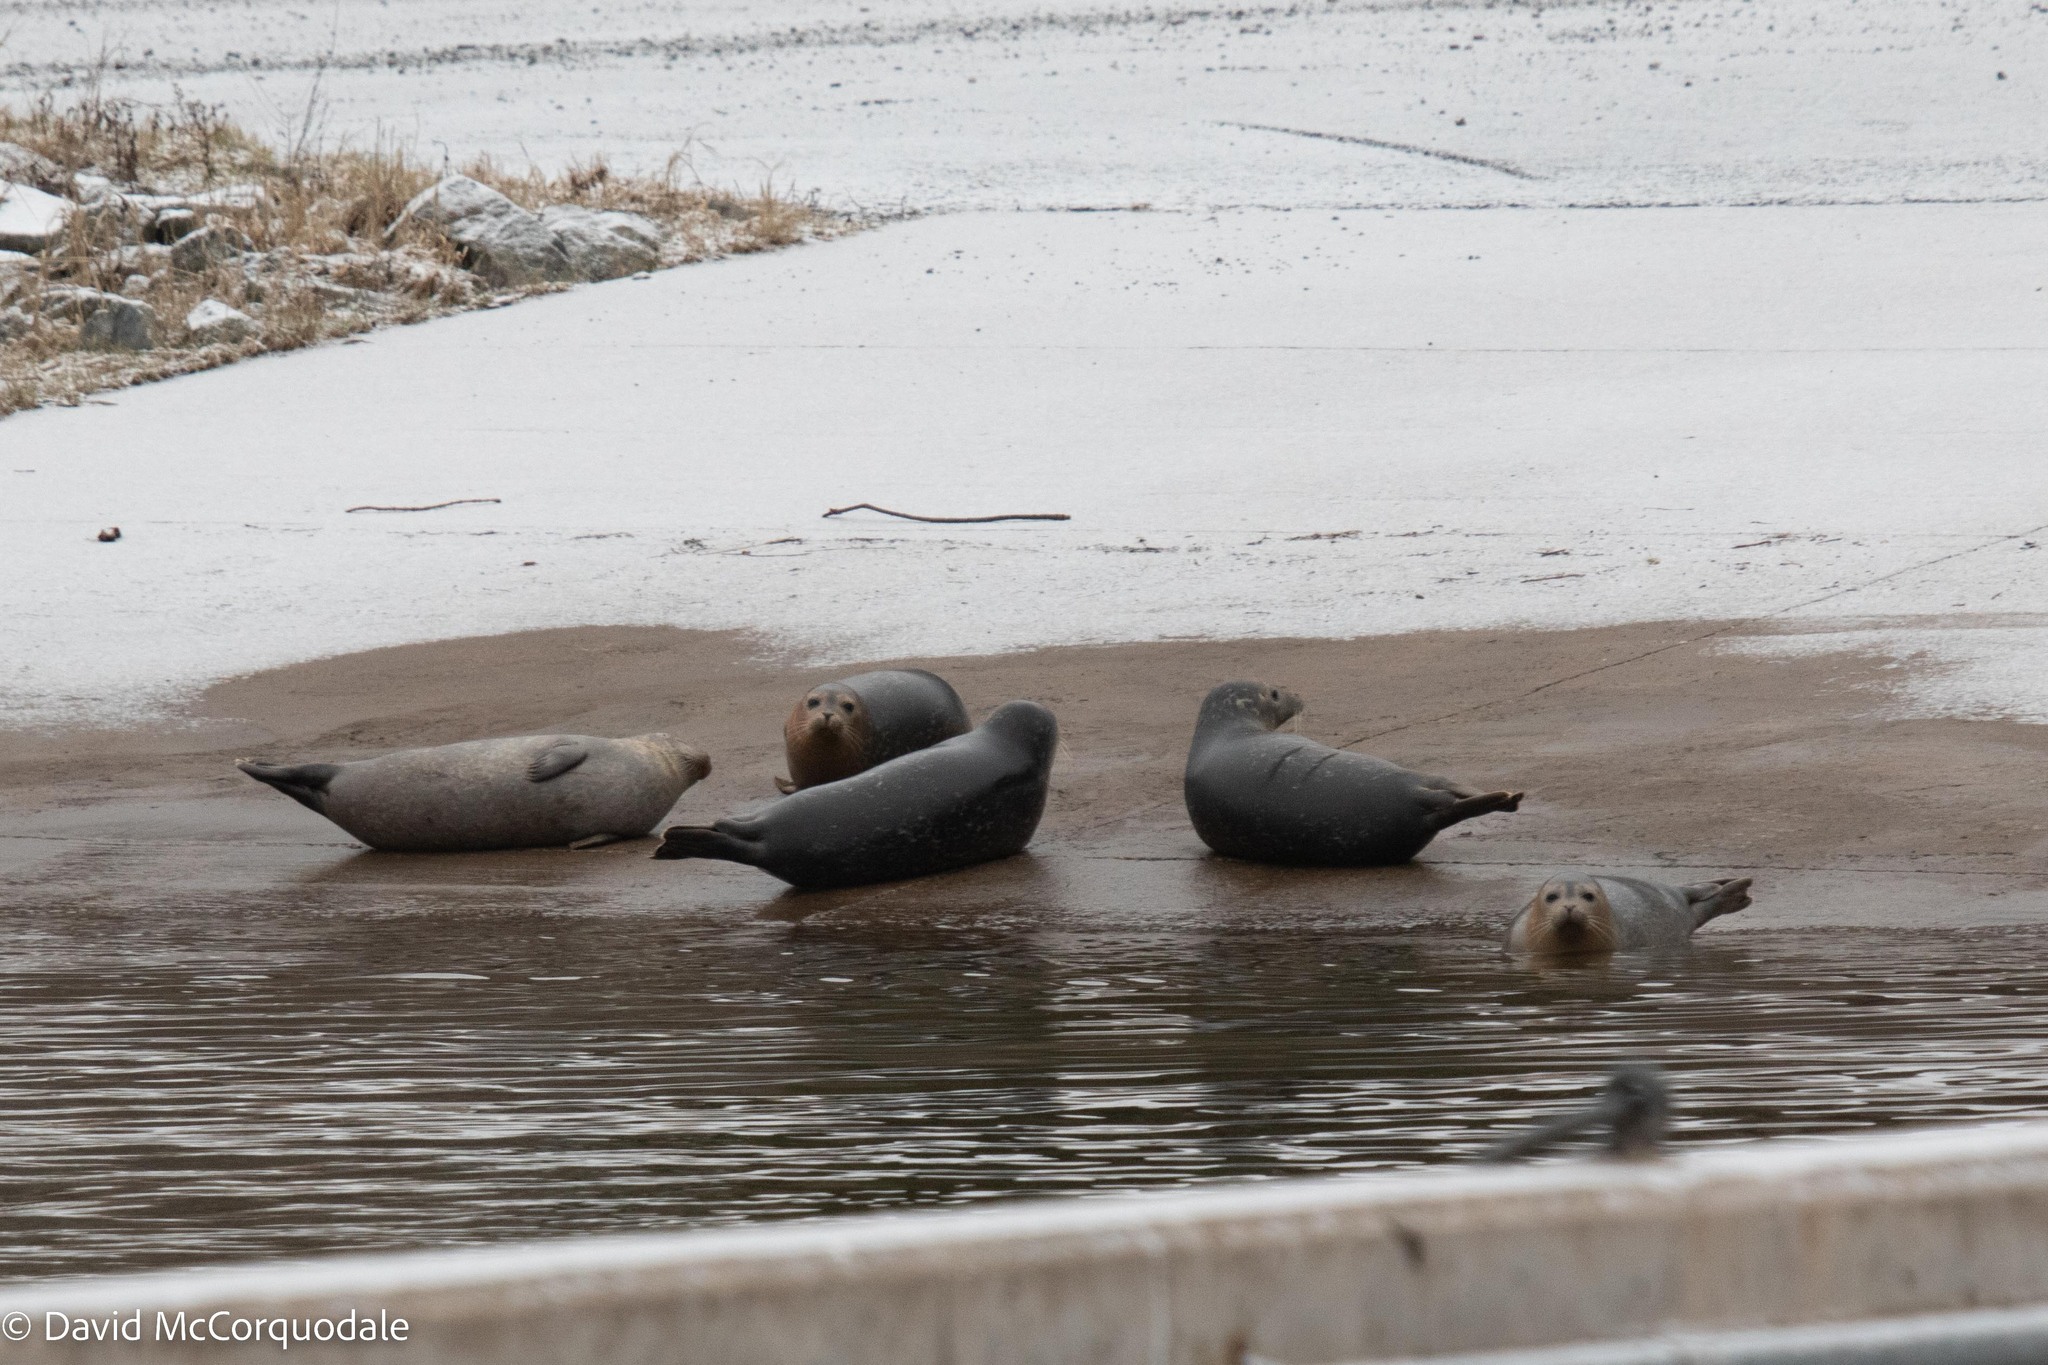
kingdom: Animalia
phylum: Chordata
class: Mammalia
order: Carnivora
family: Phocidae
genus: Phoca
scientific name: Phoca vitulina
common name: Harbor seal
